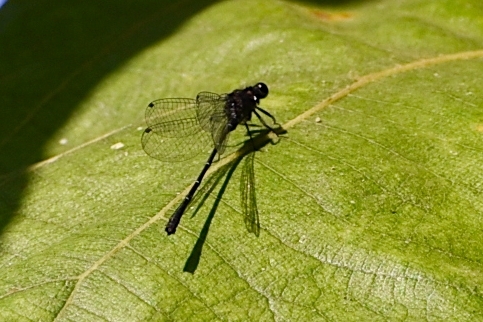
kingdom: Animalia
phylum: Arthropoda
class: Insecta
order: Odonata
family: Platycnemididae
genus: Onychargia
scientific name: Onychargia atrocyana
